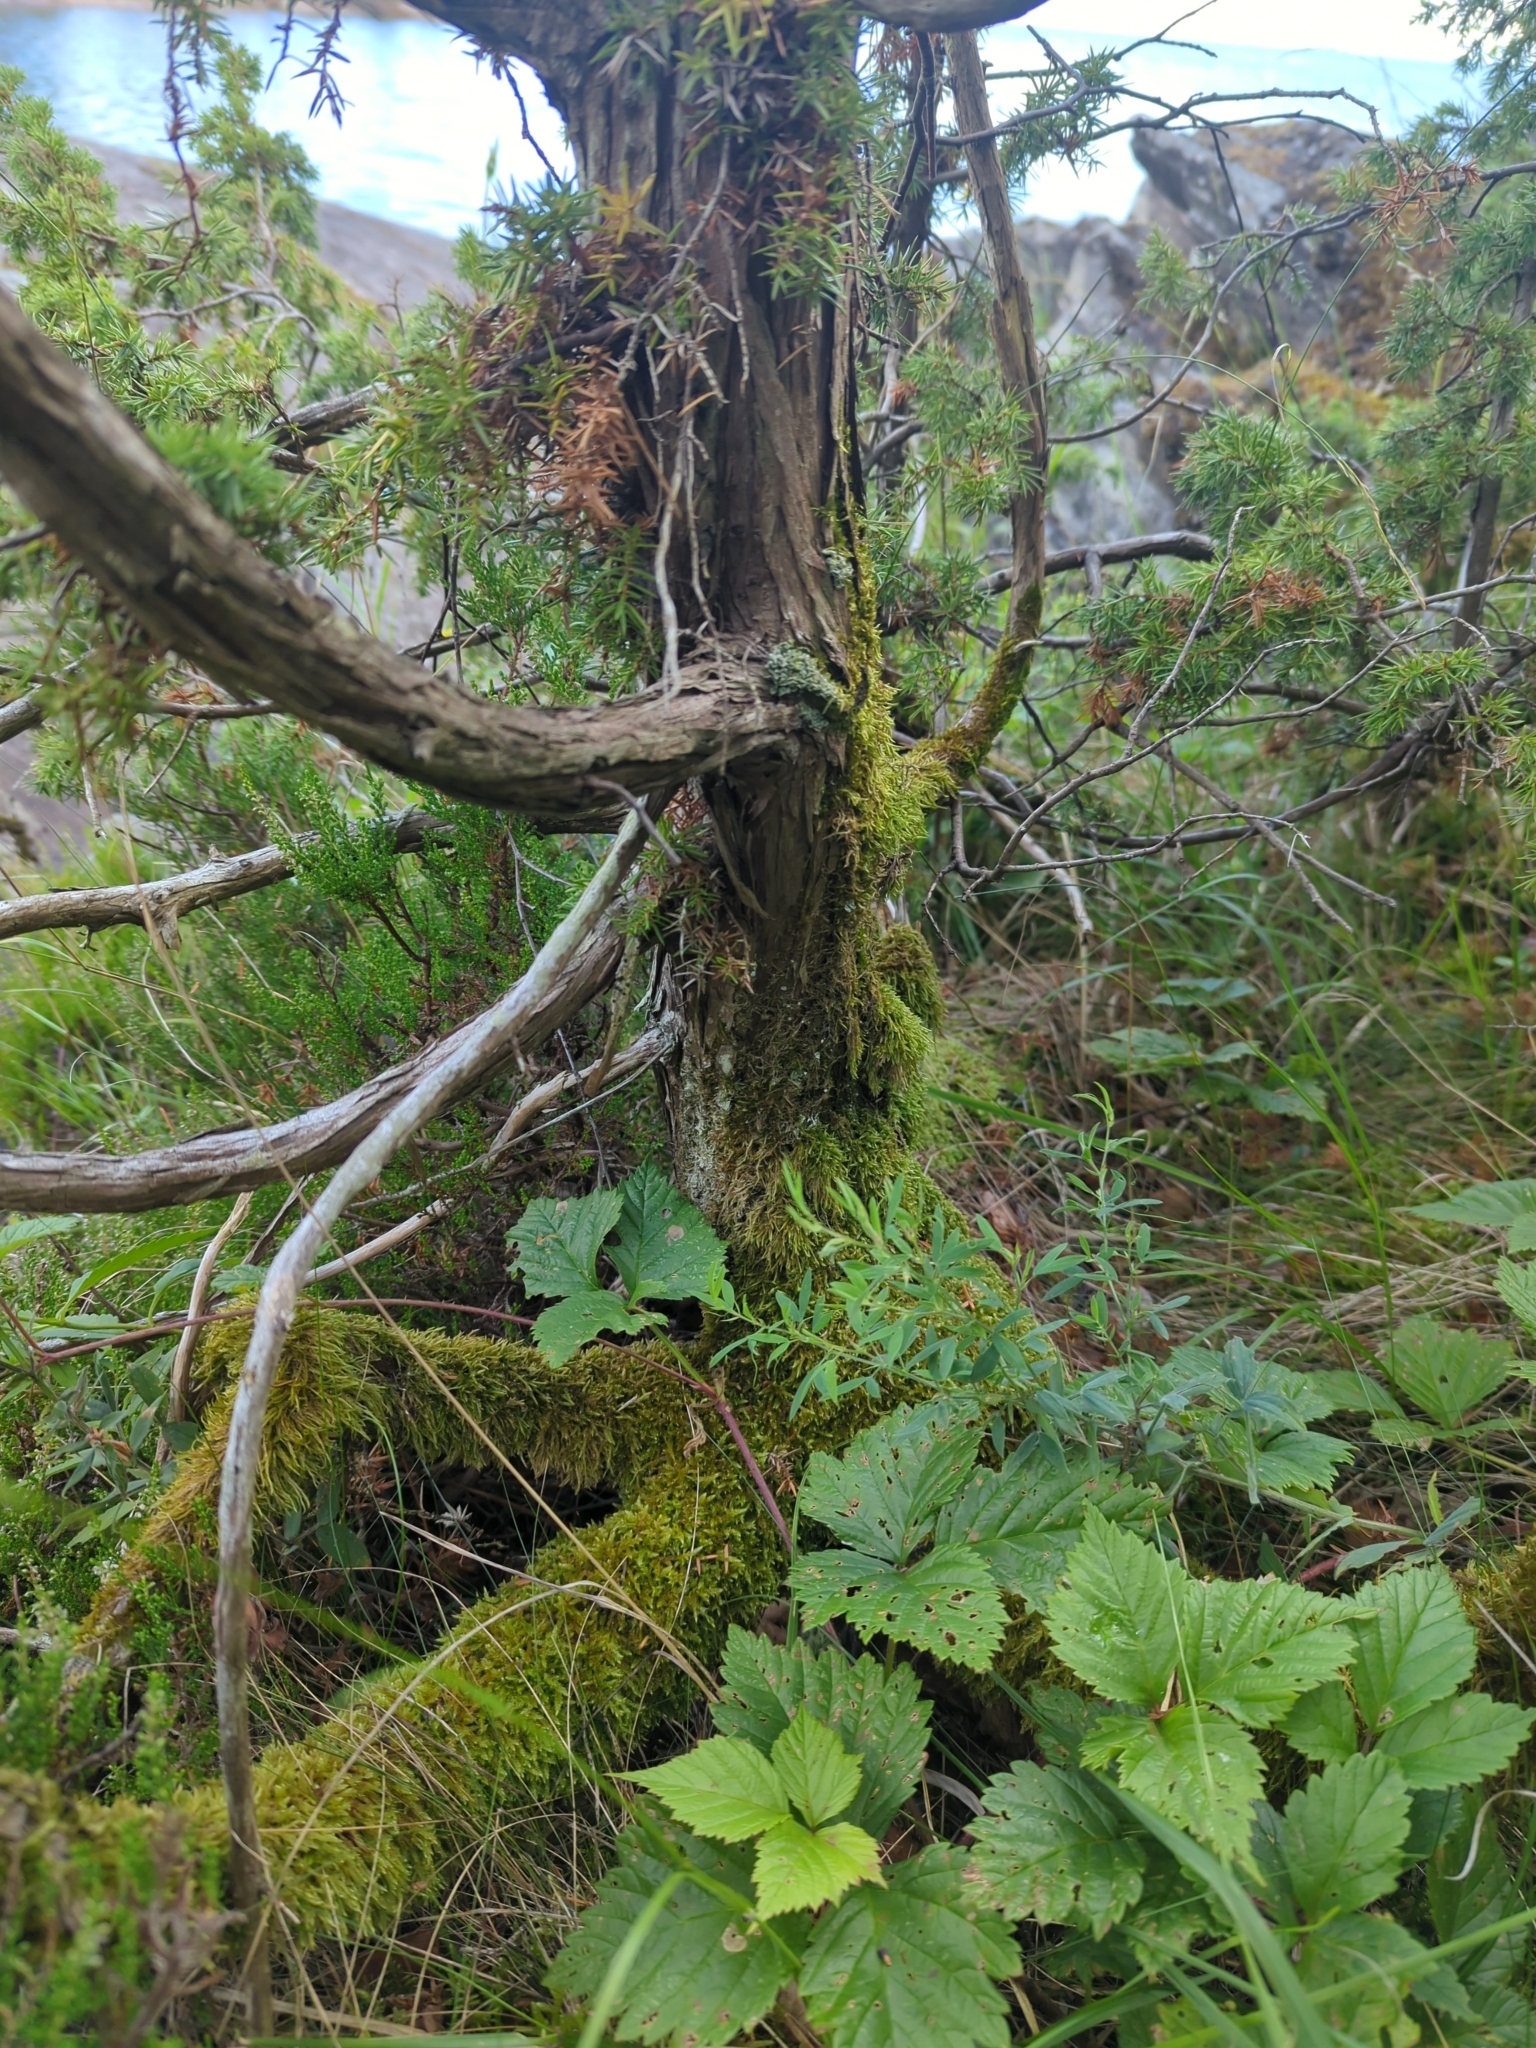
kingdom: Plantae
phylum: Tracheophyta
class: Pinopsida
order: Pinales
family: Cupressaceae
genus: Juniperus
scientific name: Juniperus communis
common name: Common juniper
